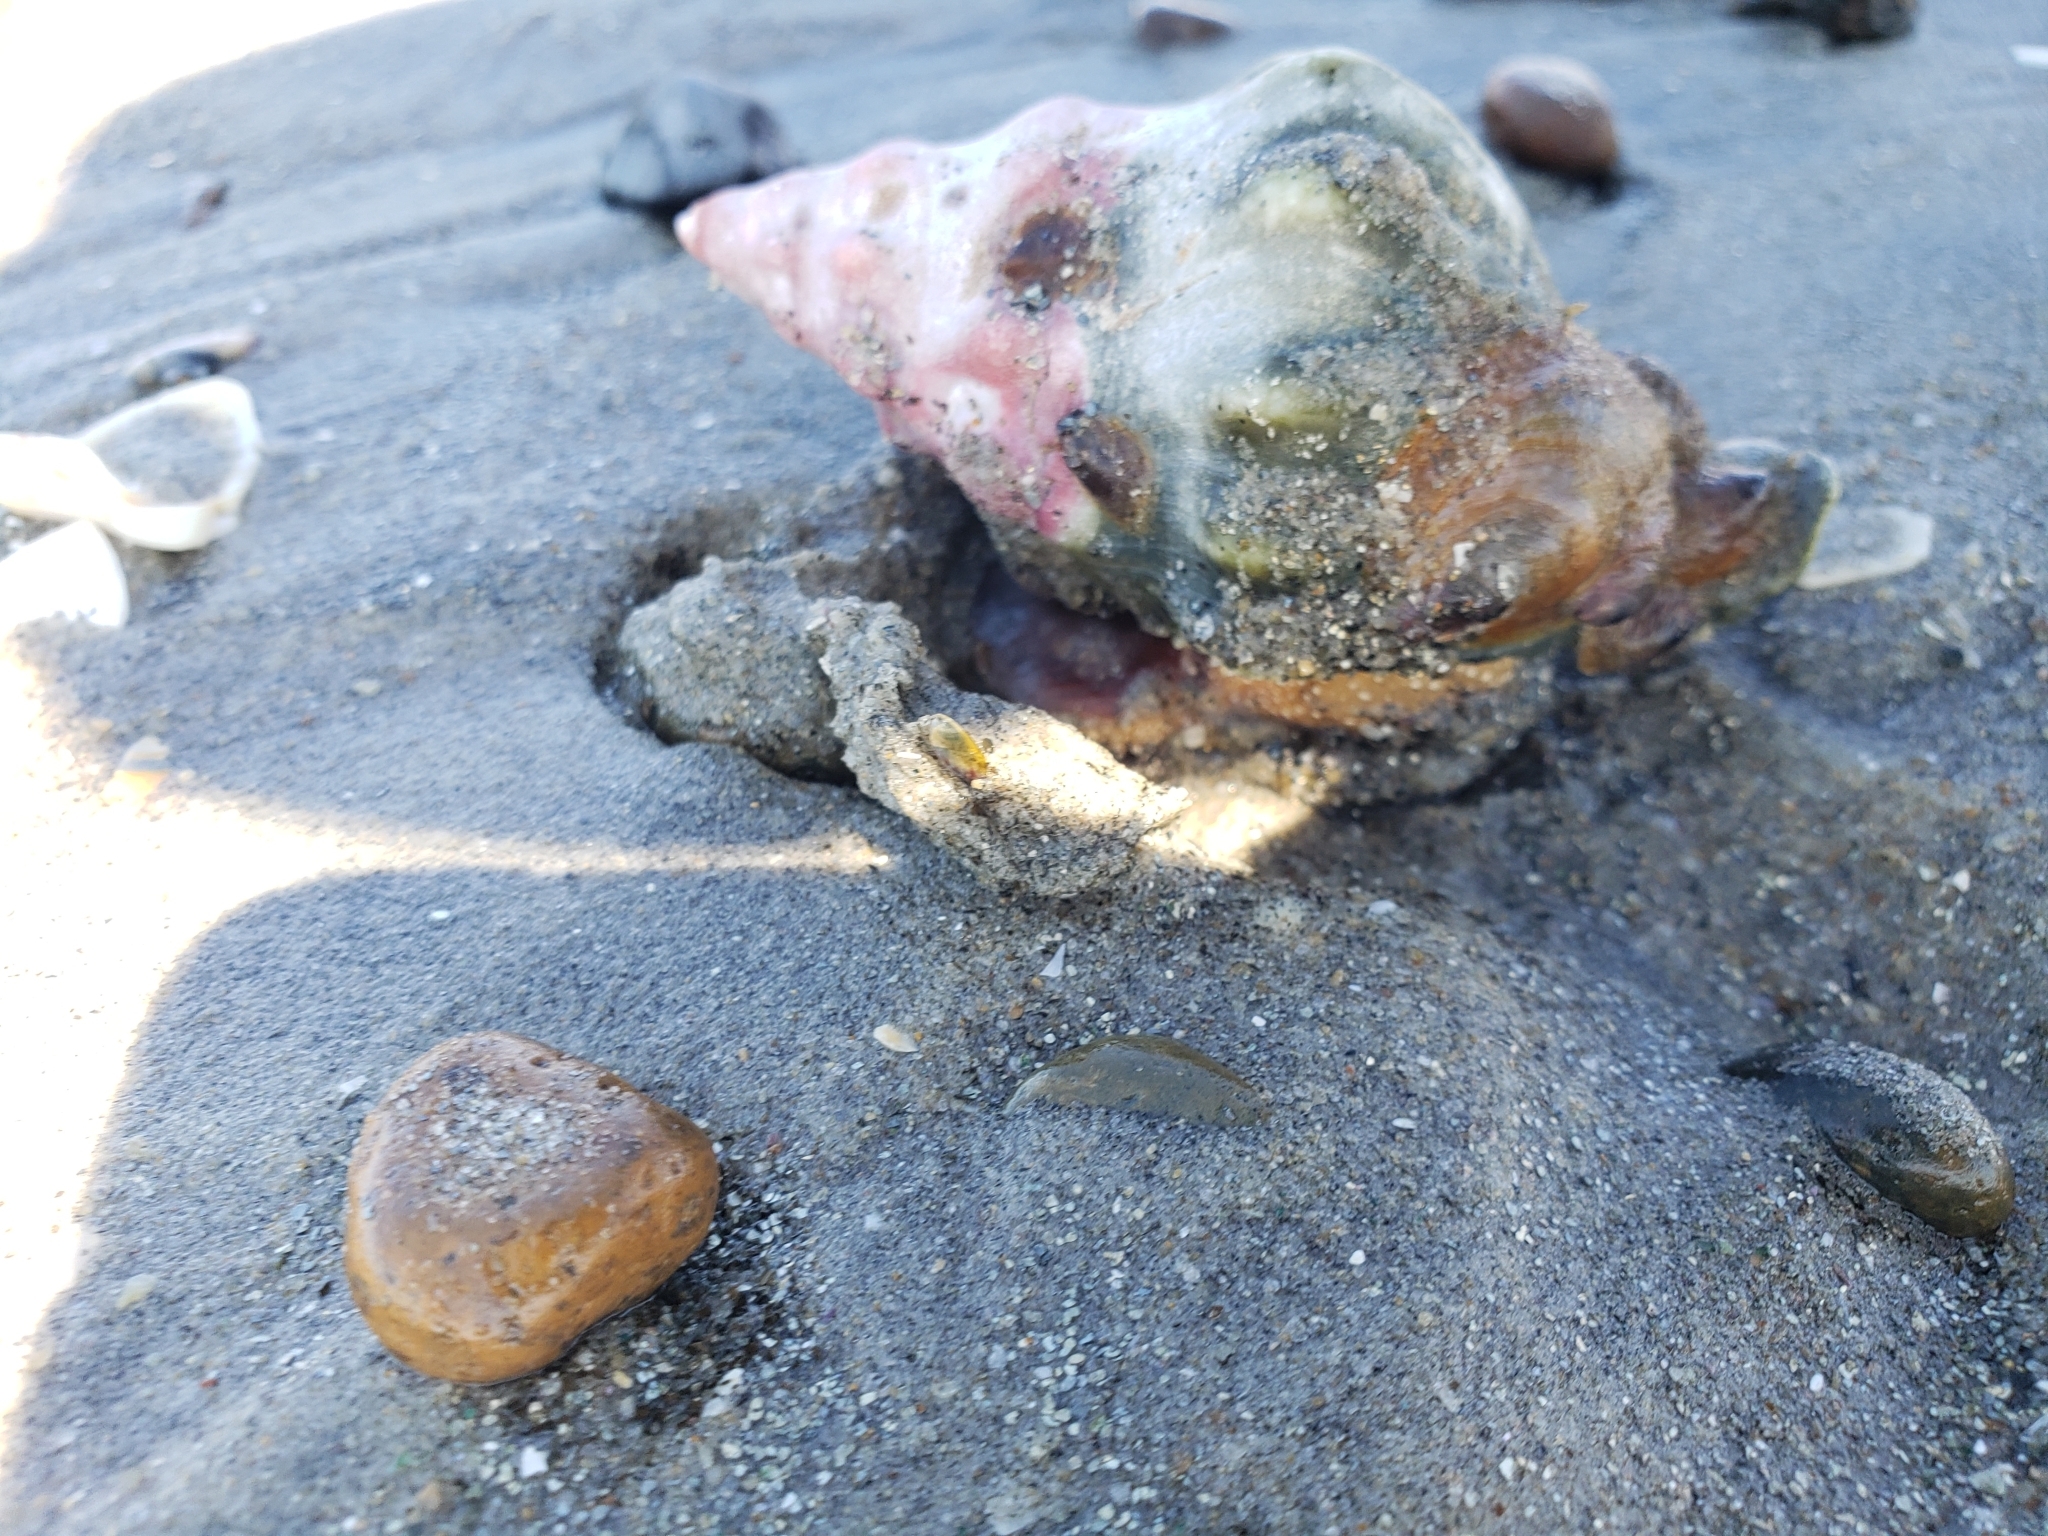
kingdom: Animalia
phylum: Mollusca
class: Gastropoda
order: Neogastropoda
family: Austrosiphonidae
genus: Kelletia
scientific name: Kelletia kelletii
